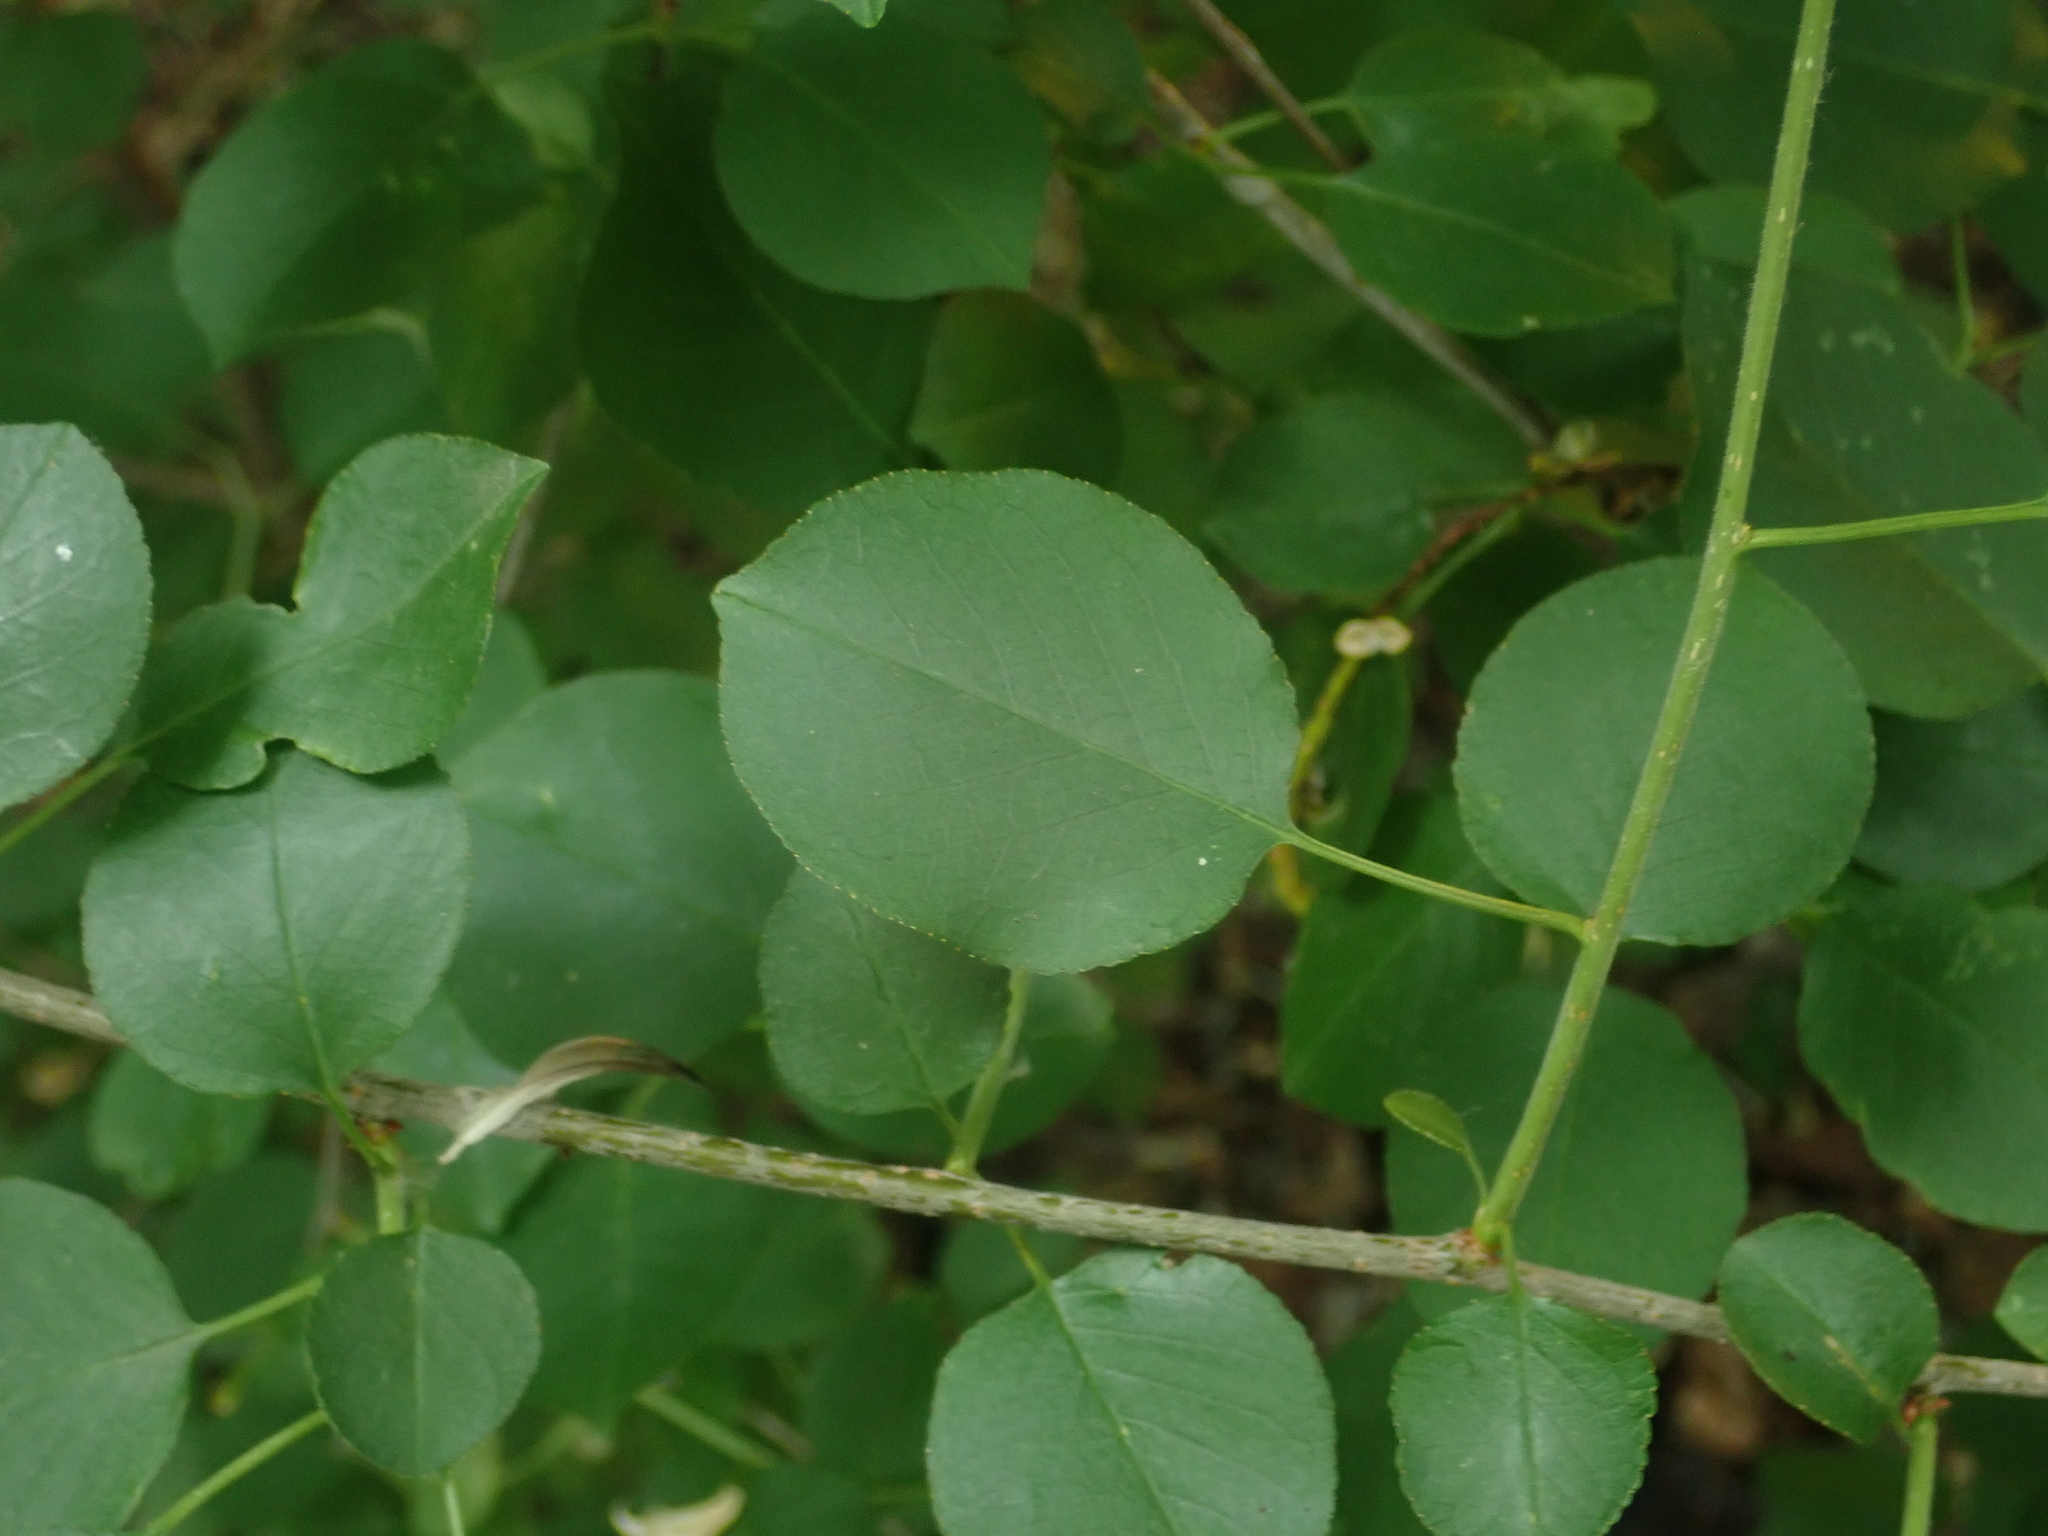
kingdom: Plantae
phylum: Tracheophyta
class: Magnoliopsida
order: Rosales
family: Rosaceae
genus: Prunus
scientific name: Prunus mahaleb
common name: Mahaleb cherry
